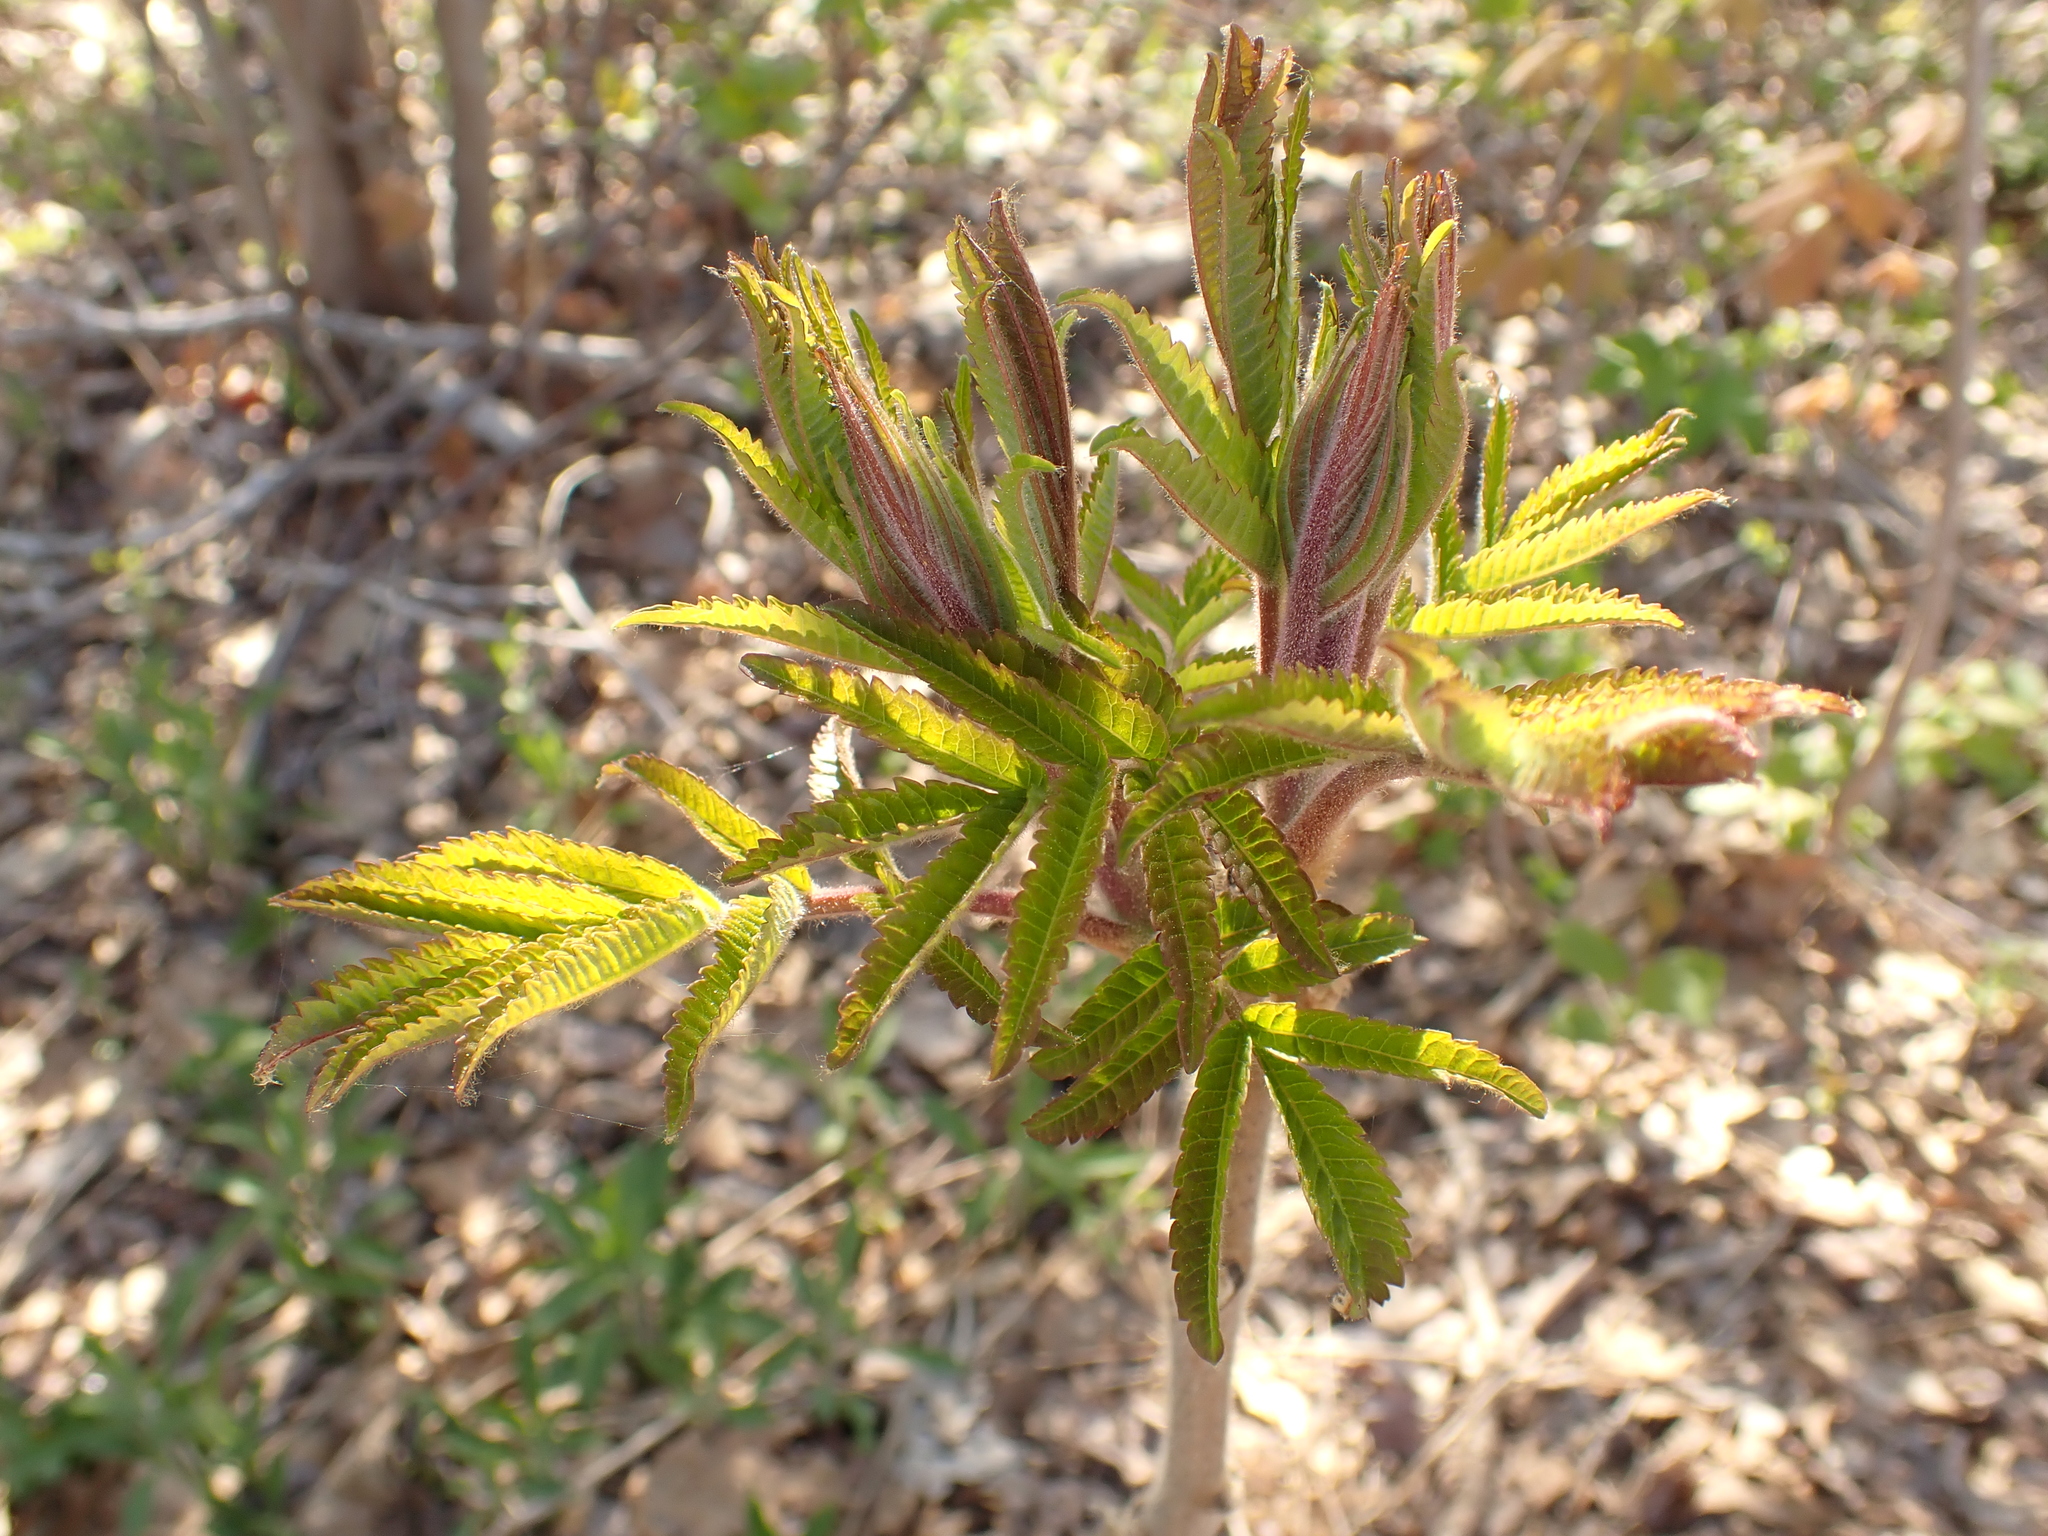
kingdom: Plantae
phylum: Tracheophyta
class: Magnoliopsida
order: Sapindales
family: Anacardiaceae
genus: Rhus
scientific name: Rhus typhina
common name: Staghorn sumac
